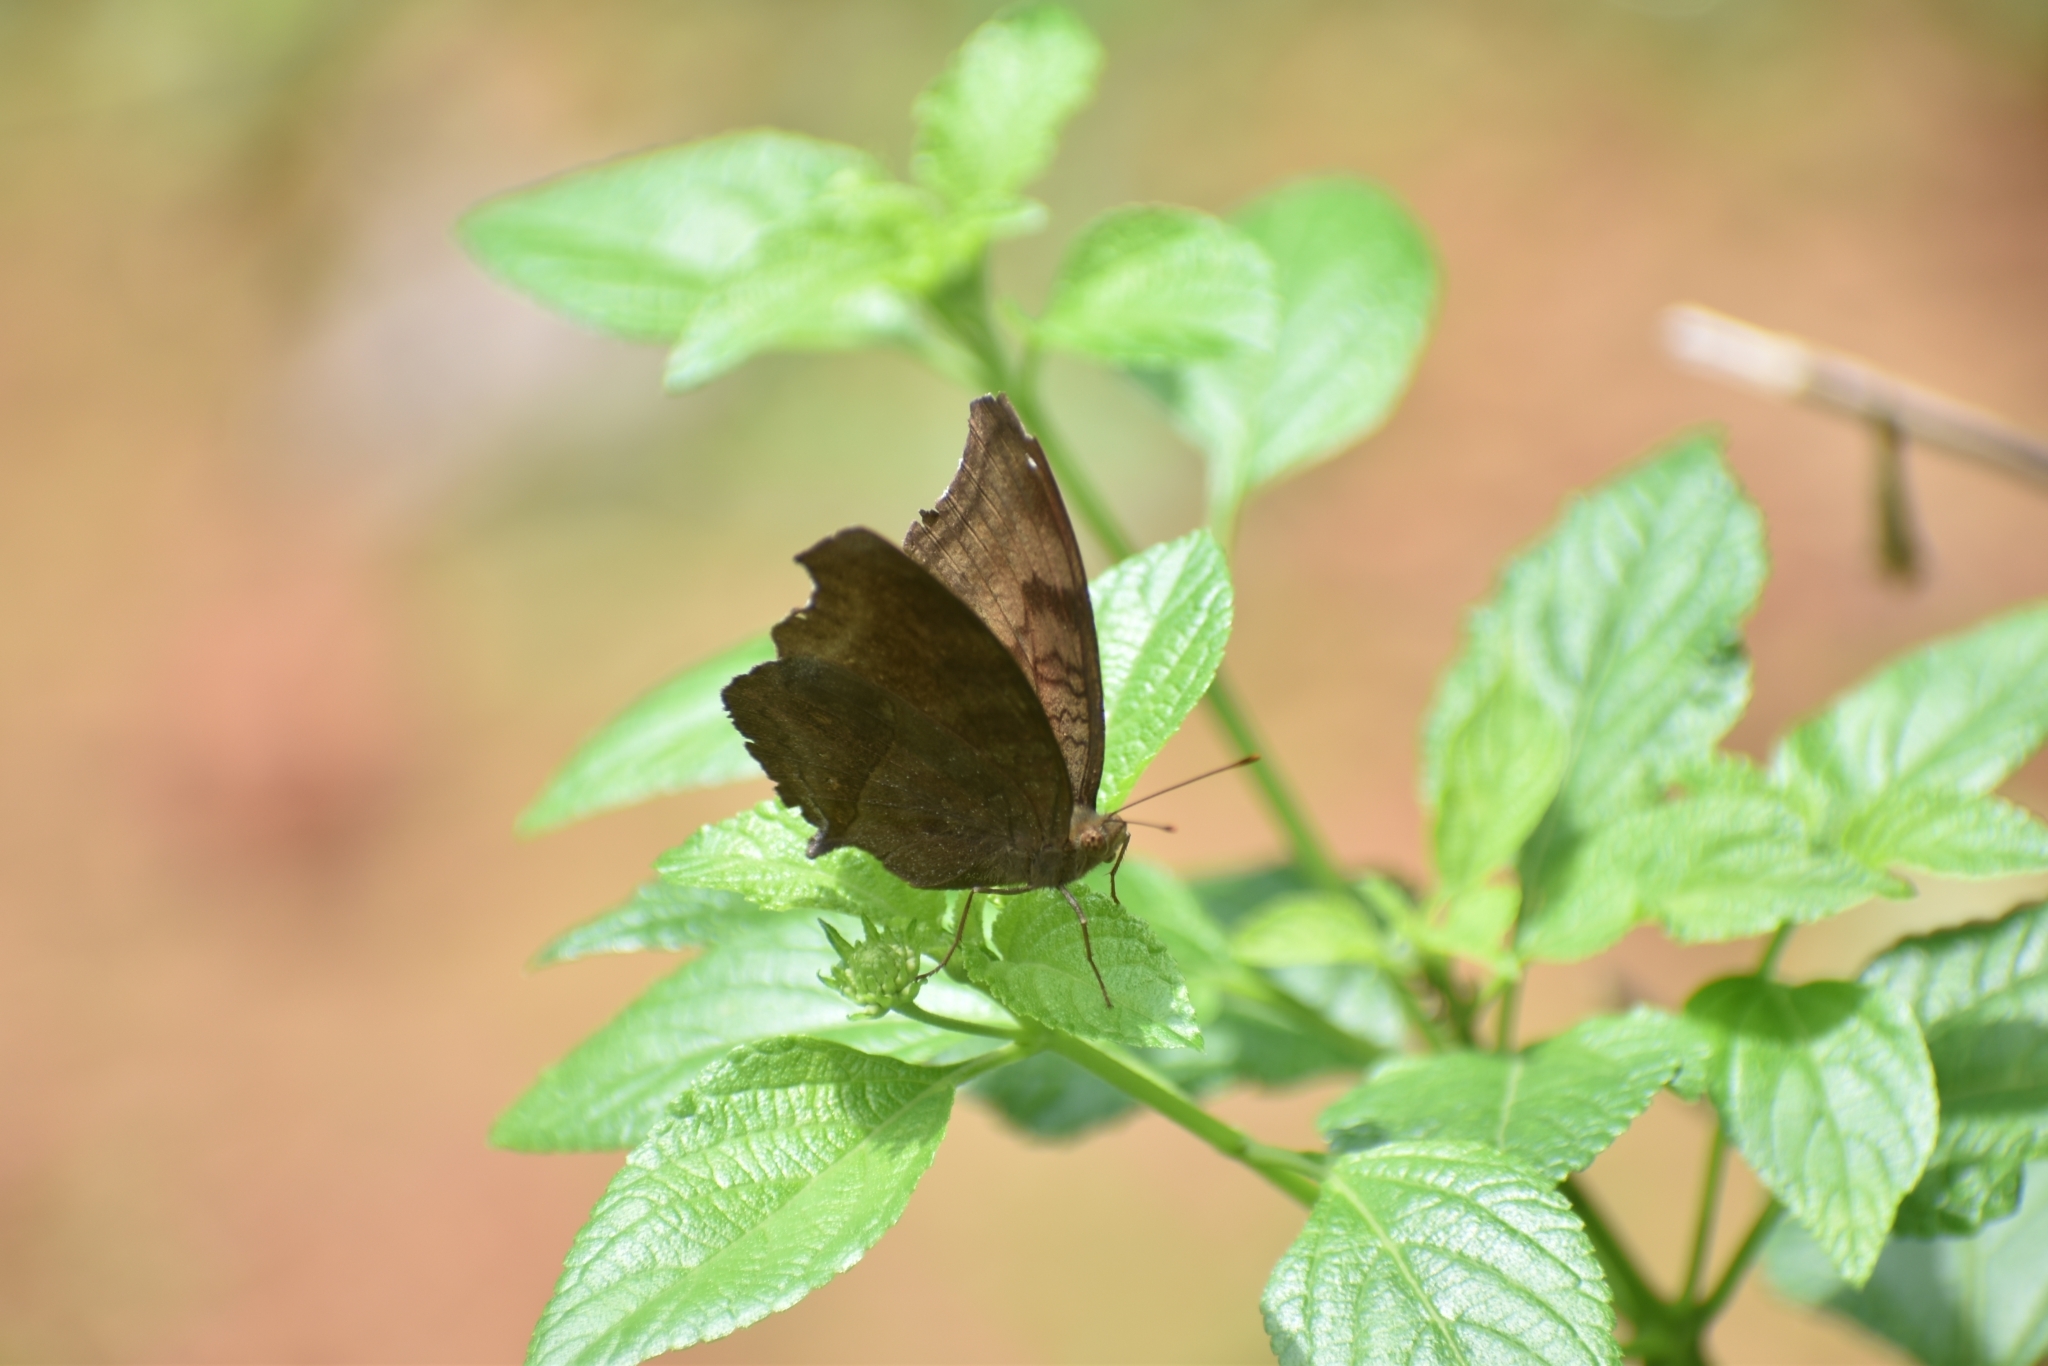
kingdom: Animalia
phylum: Arthropoda
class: Insecta
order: Lepidoptera
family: Nymphalidae
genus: Junonia
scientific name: Junonia iphita
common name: Chocolate pansy
